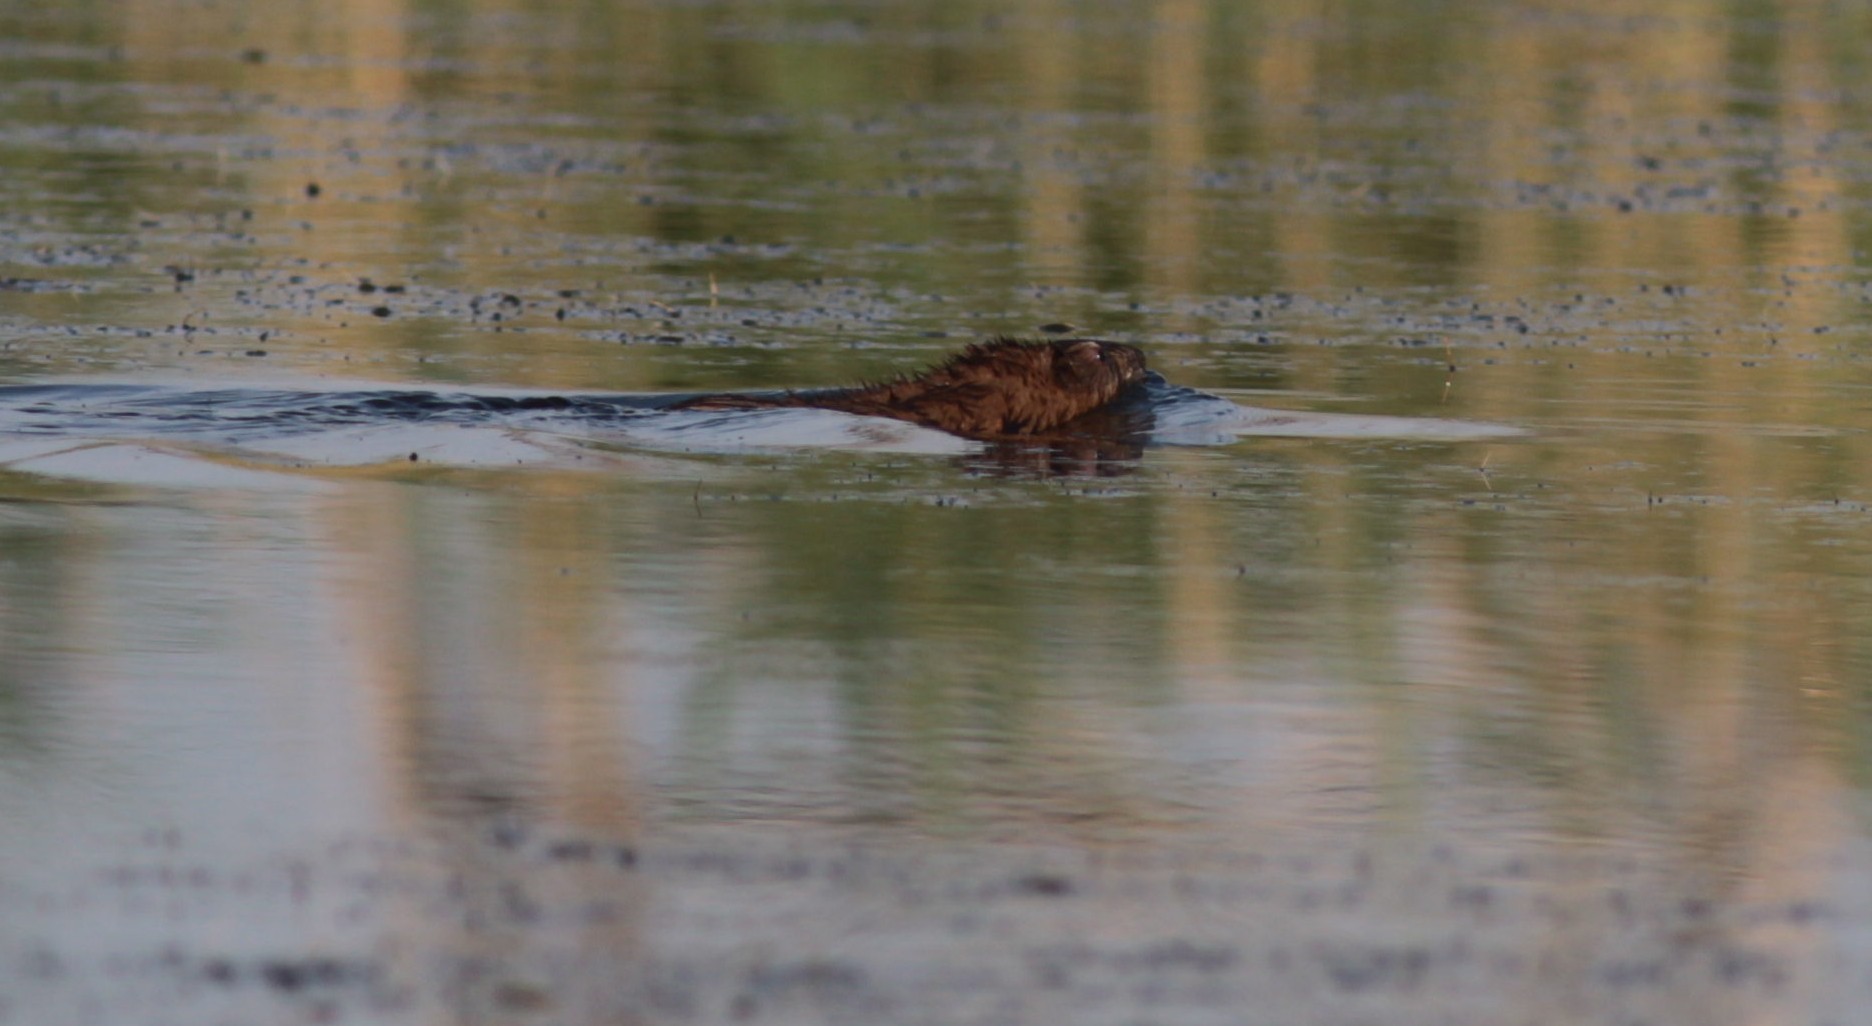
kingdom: Animalia
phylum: Chordata
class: Mammalia
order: Rodentia
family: Cricetidae
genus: Ondatra
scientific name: Ondatra zibethicus
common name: Muskrat
